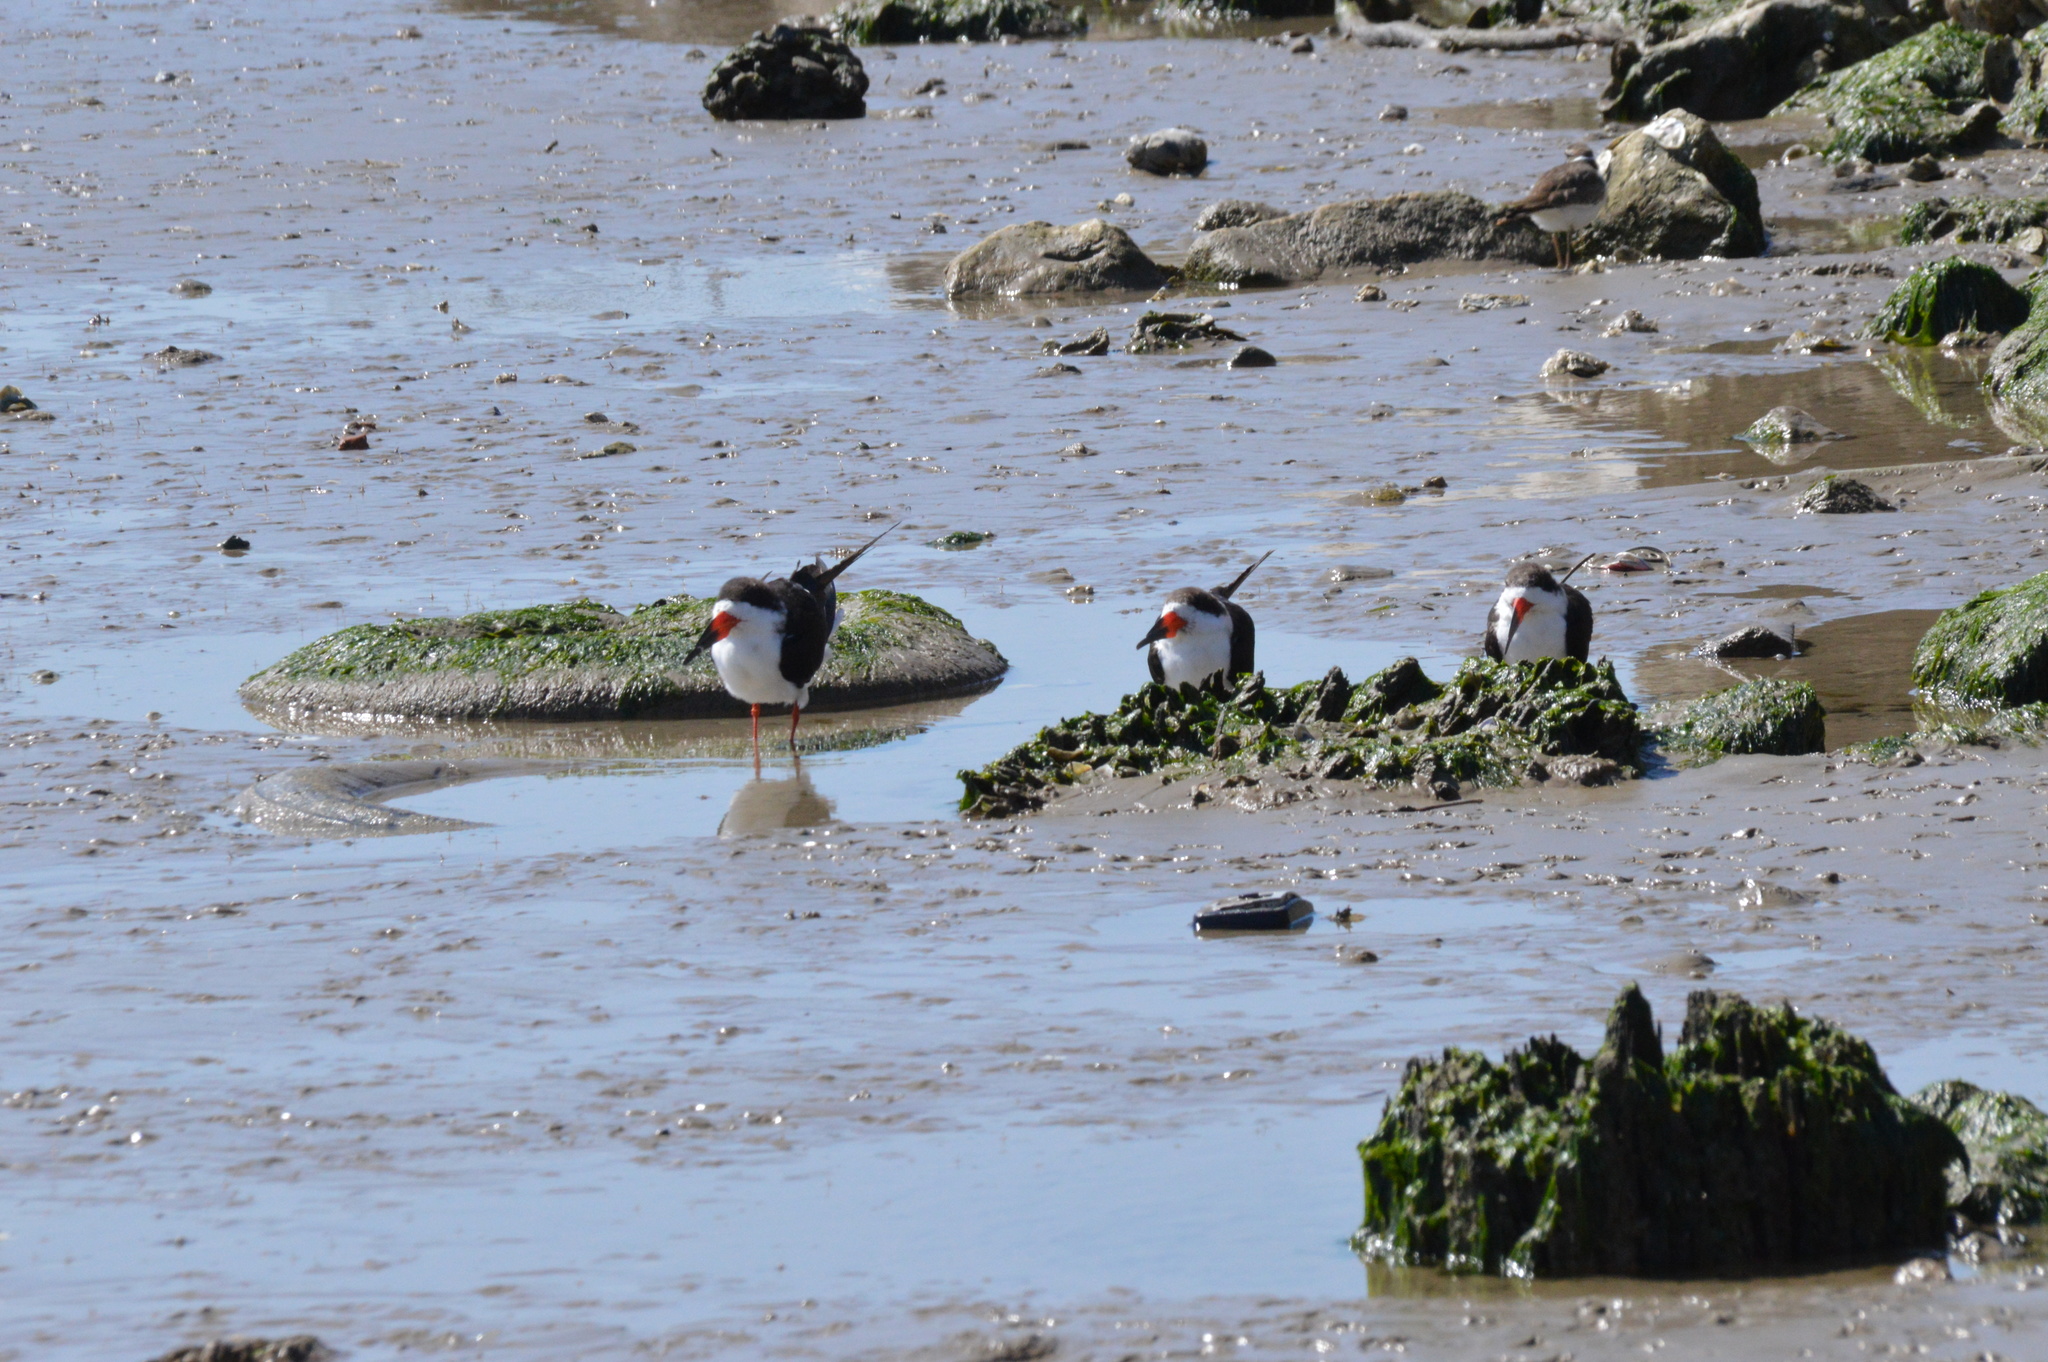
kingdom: Animalia
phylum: Chordata
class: Aves
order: Charadriiformes
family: Laridae
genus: Rynchops
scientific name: Rynchops niger
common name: Black skimmer
